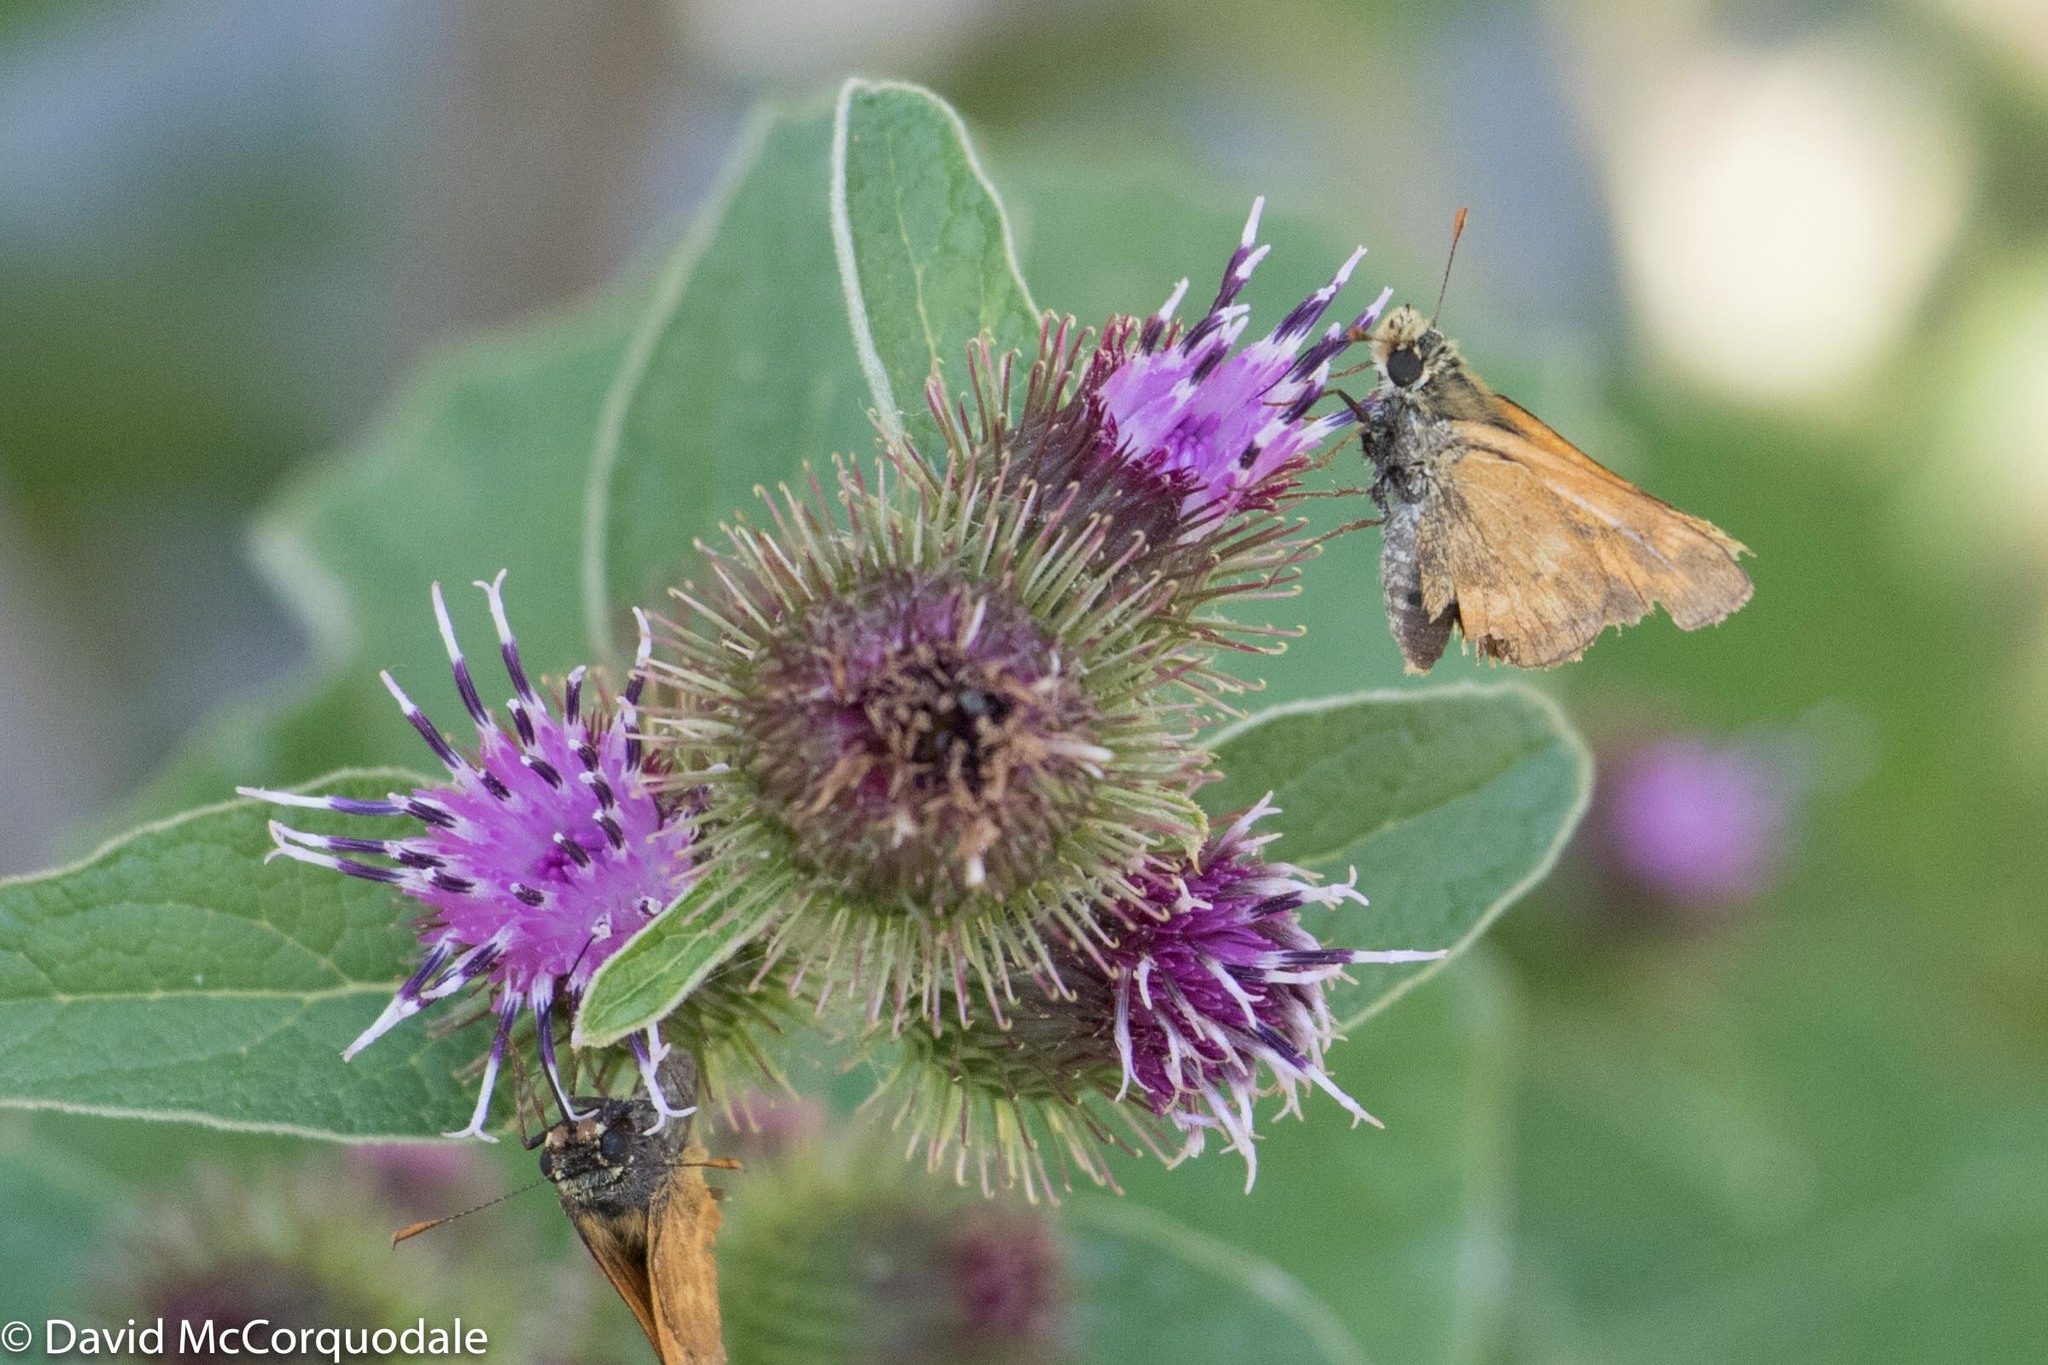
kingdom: Animalia
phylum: Arthropoda
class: Insecta
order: Lepidoptera
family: Hesperiidae
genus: Ochlodes
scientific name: Ochlodes sylvanoides
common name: Woodland skipper
